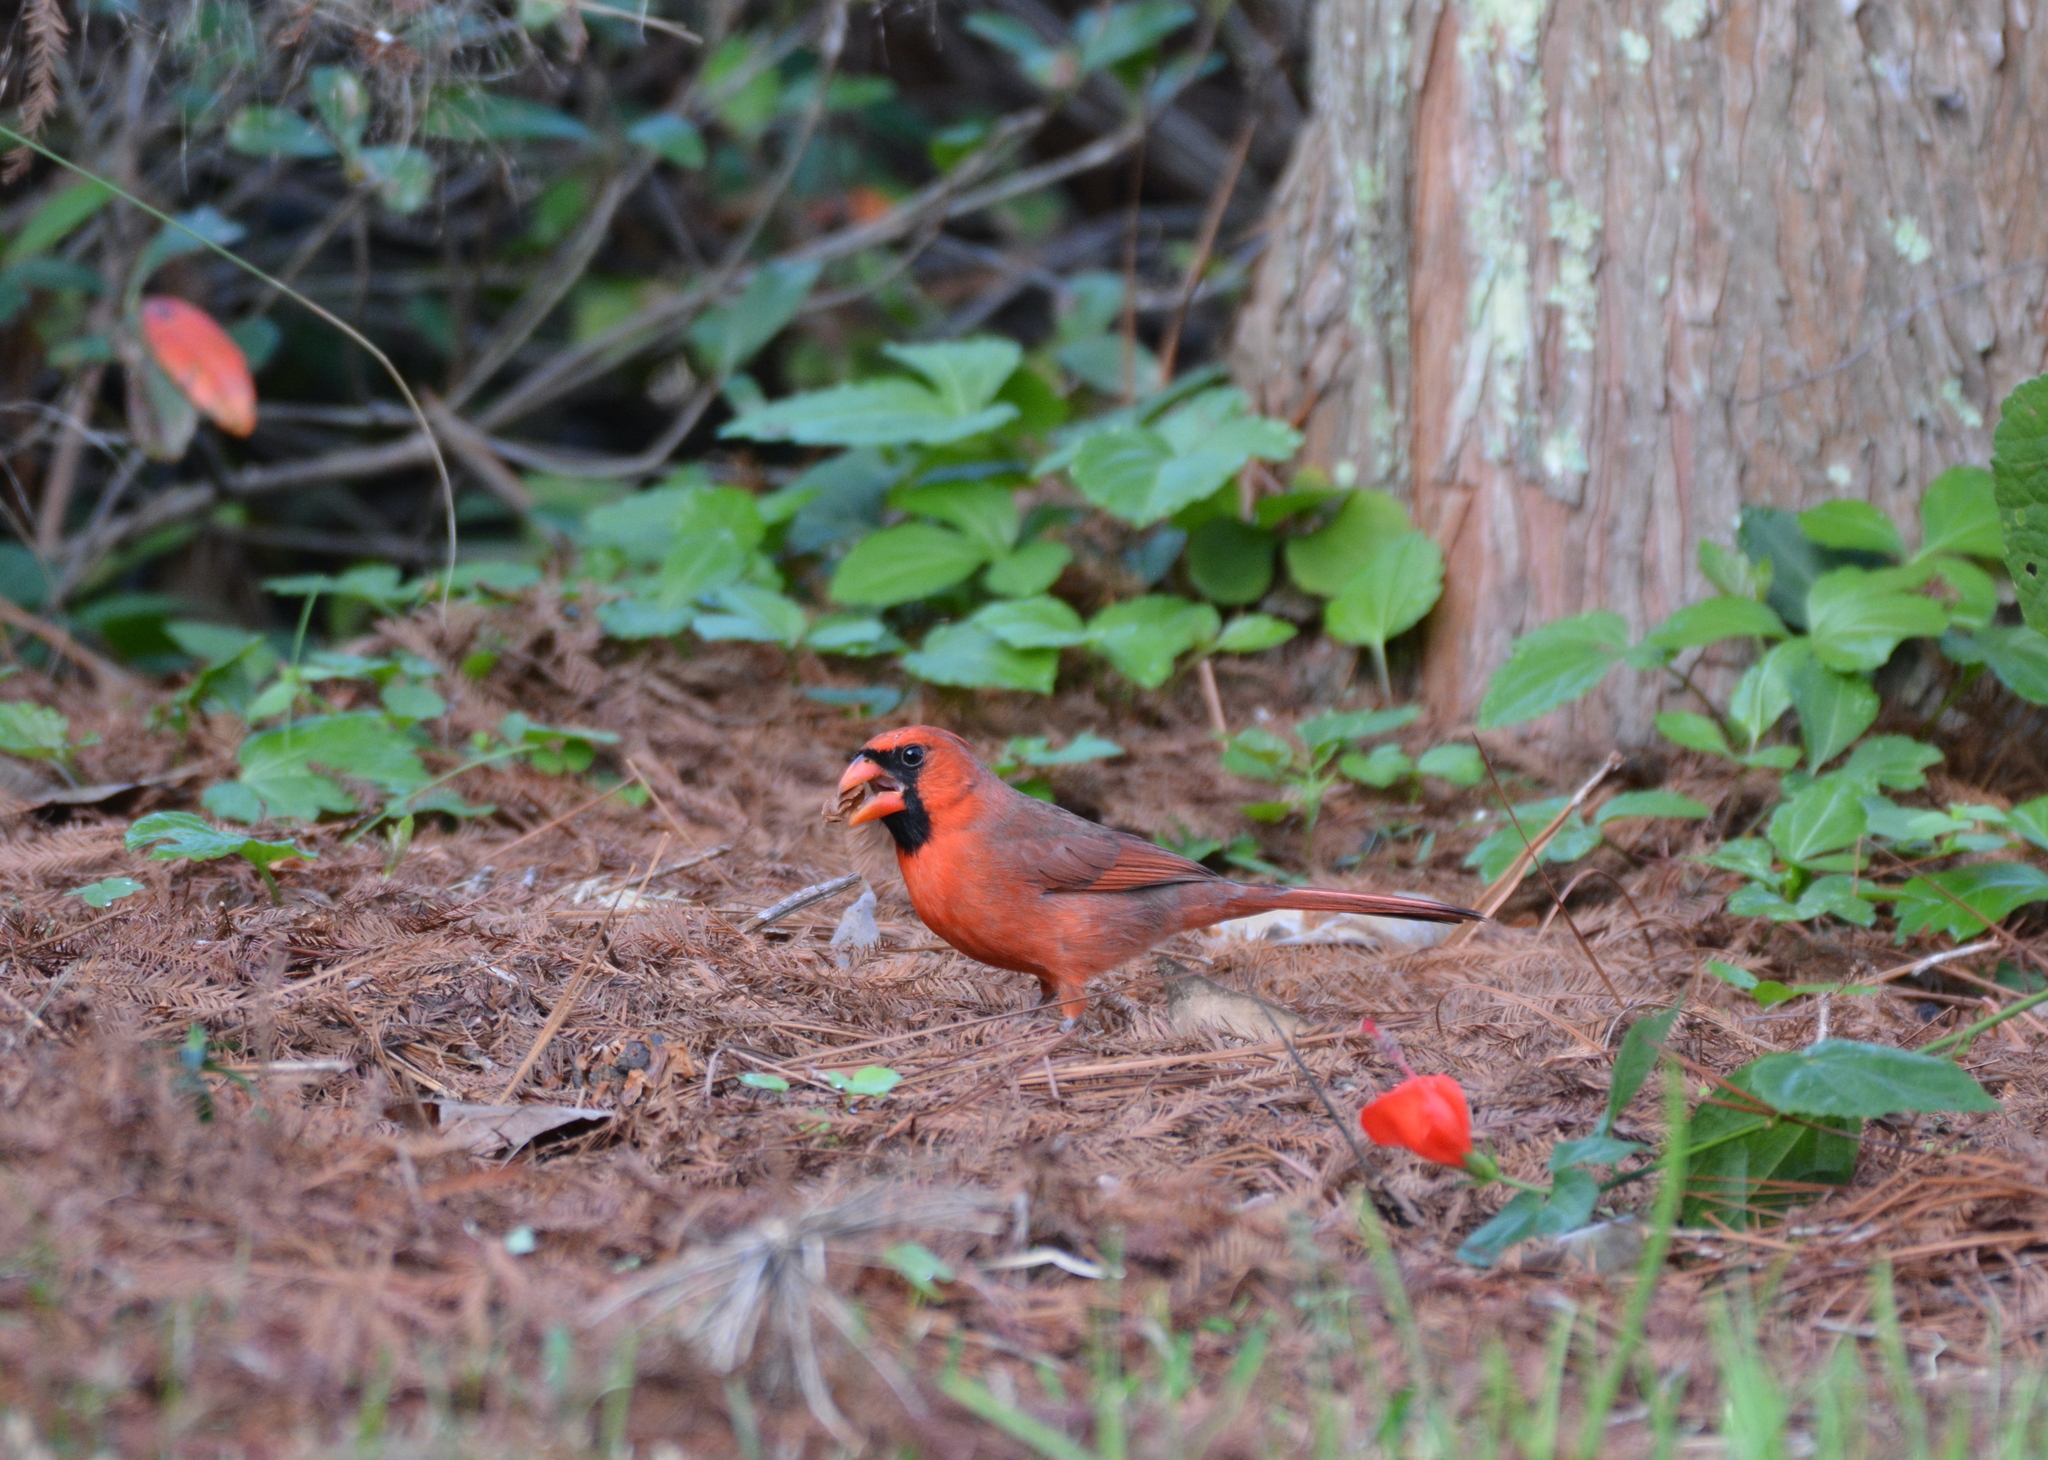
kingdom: Animalia
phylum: Chordata
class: Aves
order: Passeriformes
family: Cardinalidae
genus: Cardinalis
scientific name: Cardinalis cardinalis
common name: Northern cardinal
